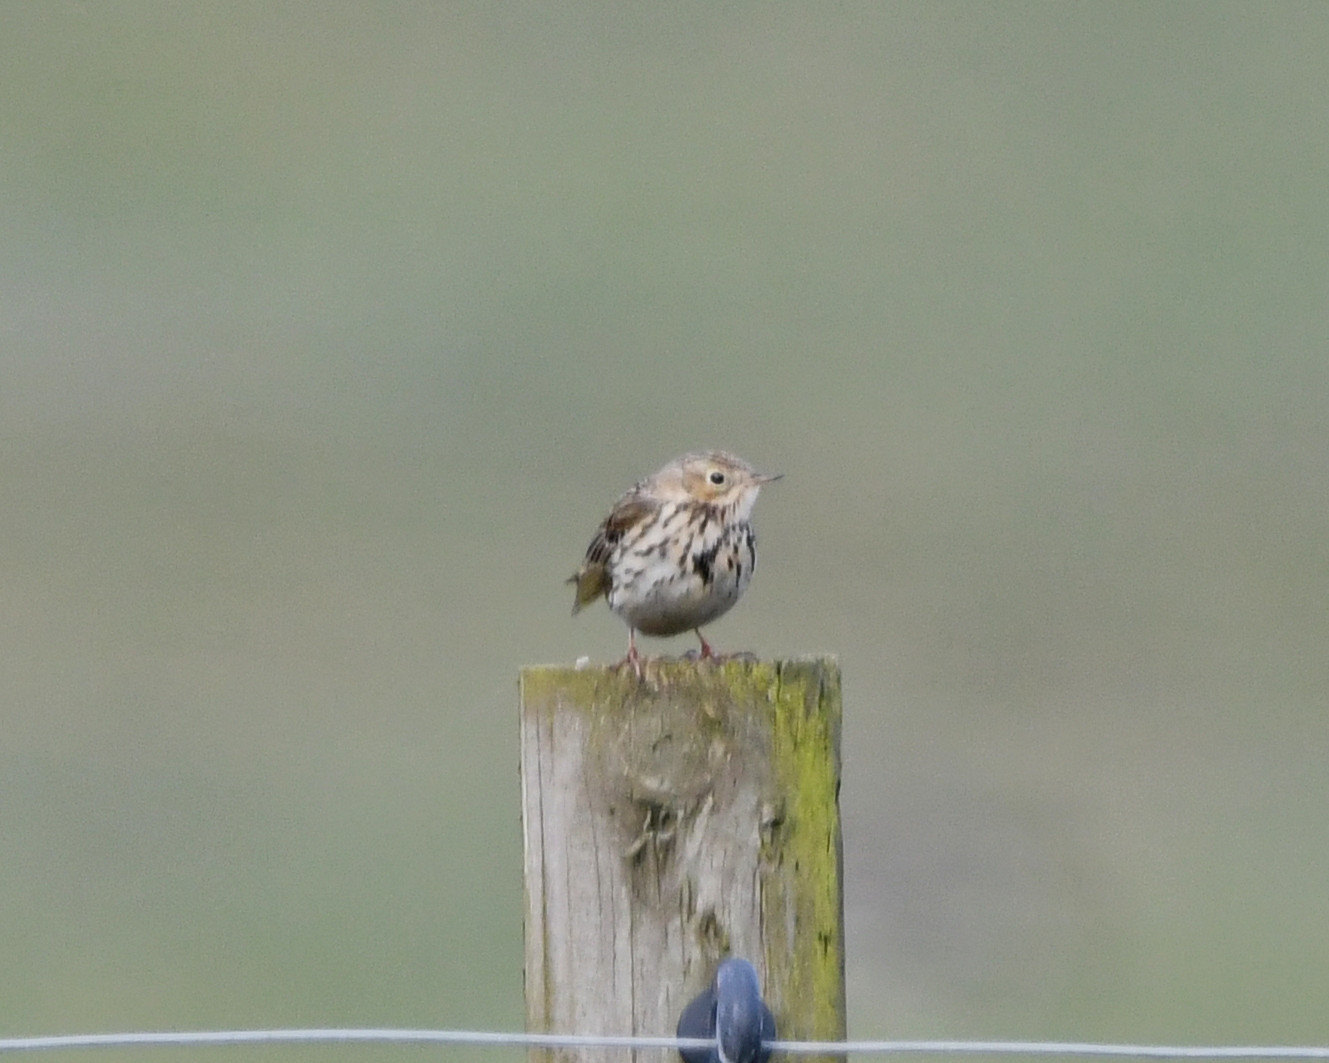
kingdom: Animalia
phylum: Chordata
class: Aves
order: Passeriformes
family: Motacillidae
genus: Anthus
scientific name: Anthus pratensis
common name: Meadow pipit
